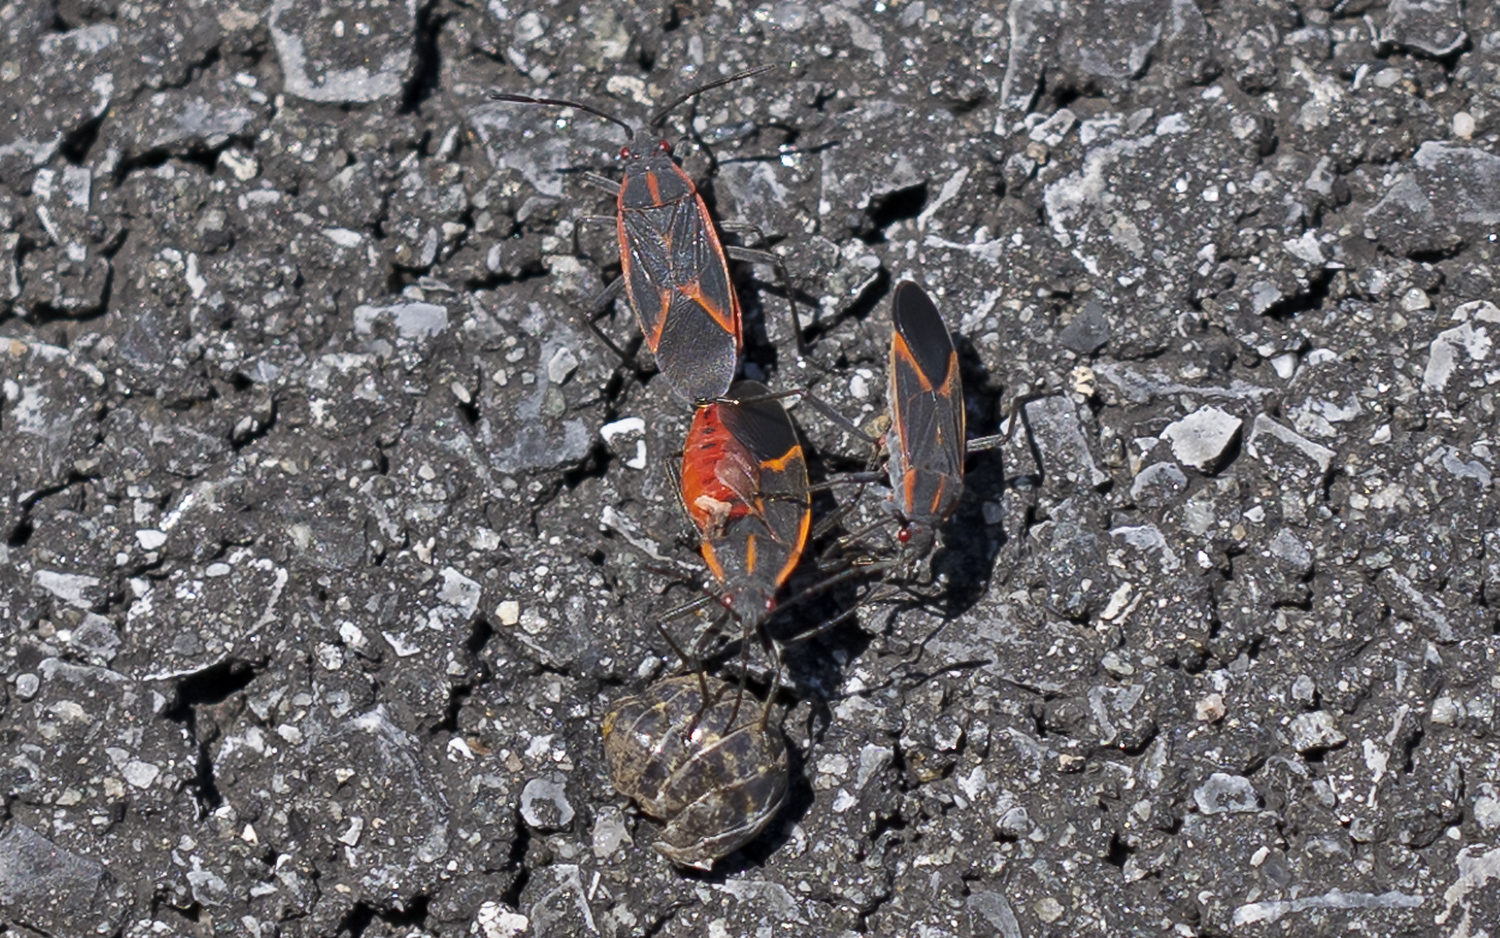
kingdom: Animalia
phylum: Arthropoda
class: Insecta
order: Hemiptera
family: Rhopalidae
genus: Boisea
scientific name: Boisea trivittata
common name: Boxelder bug
